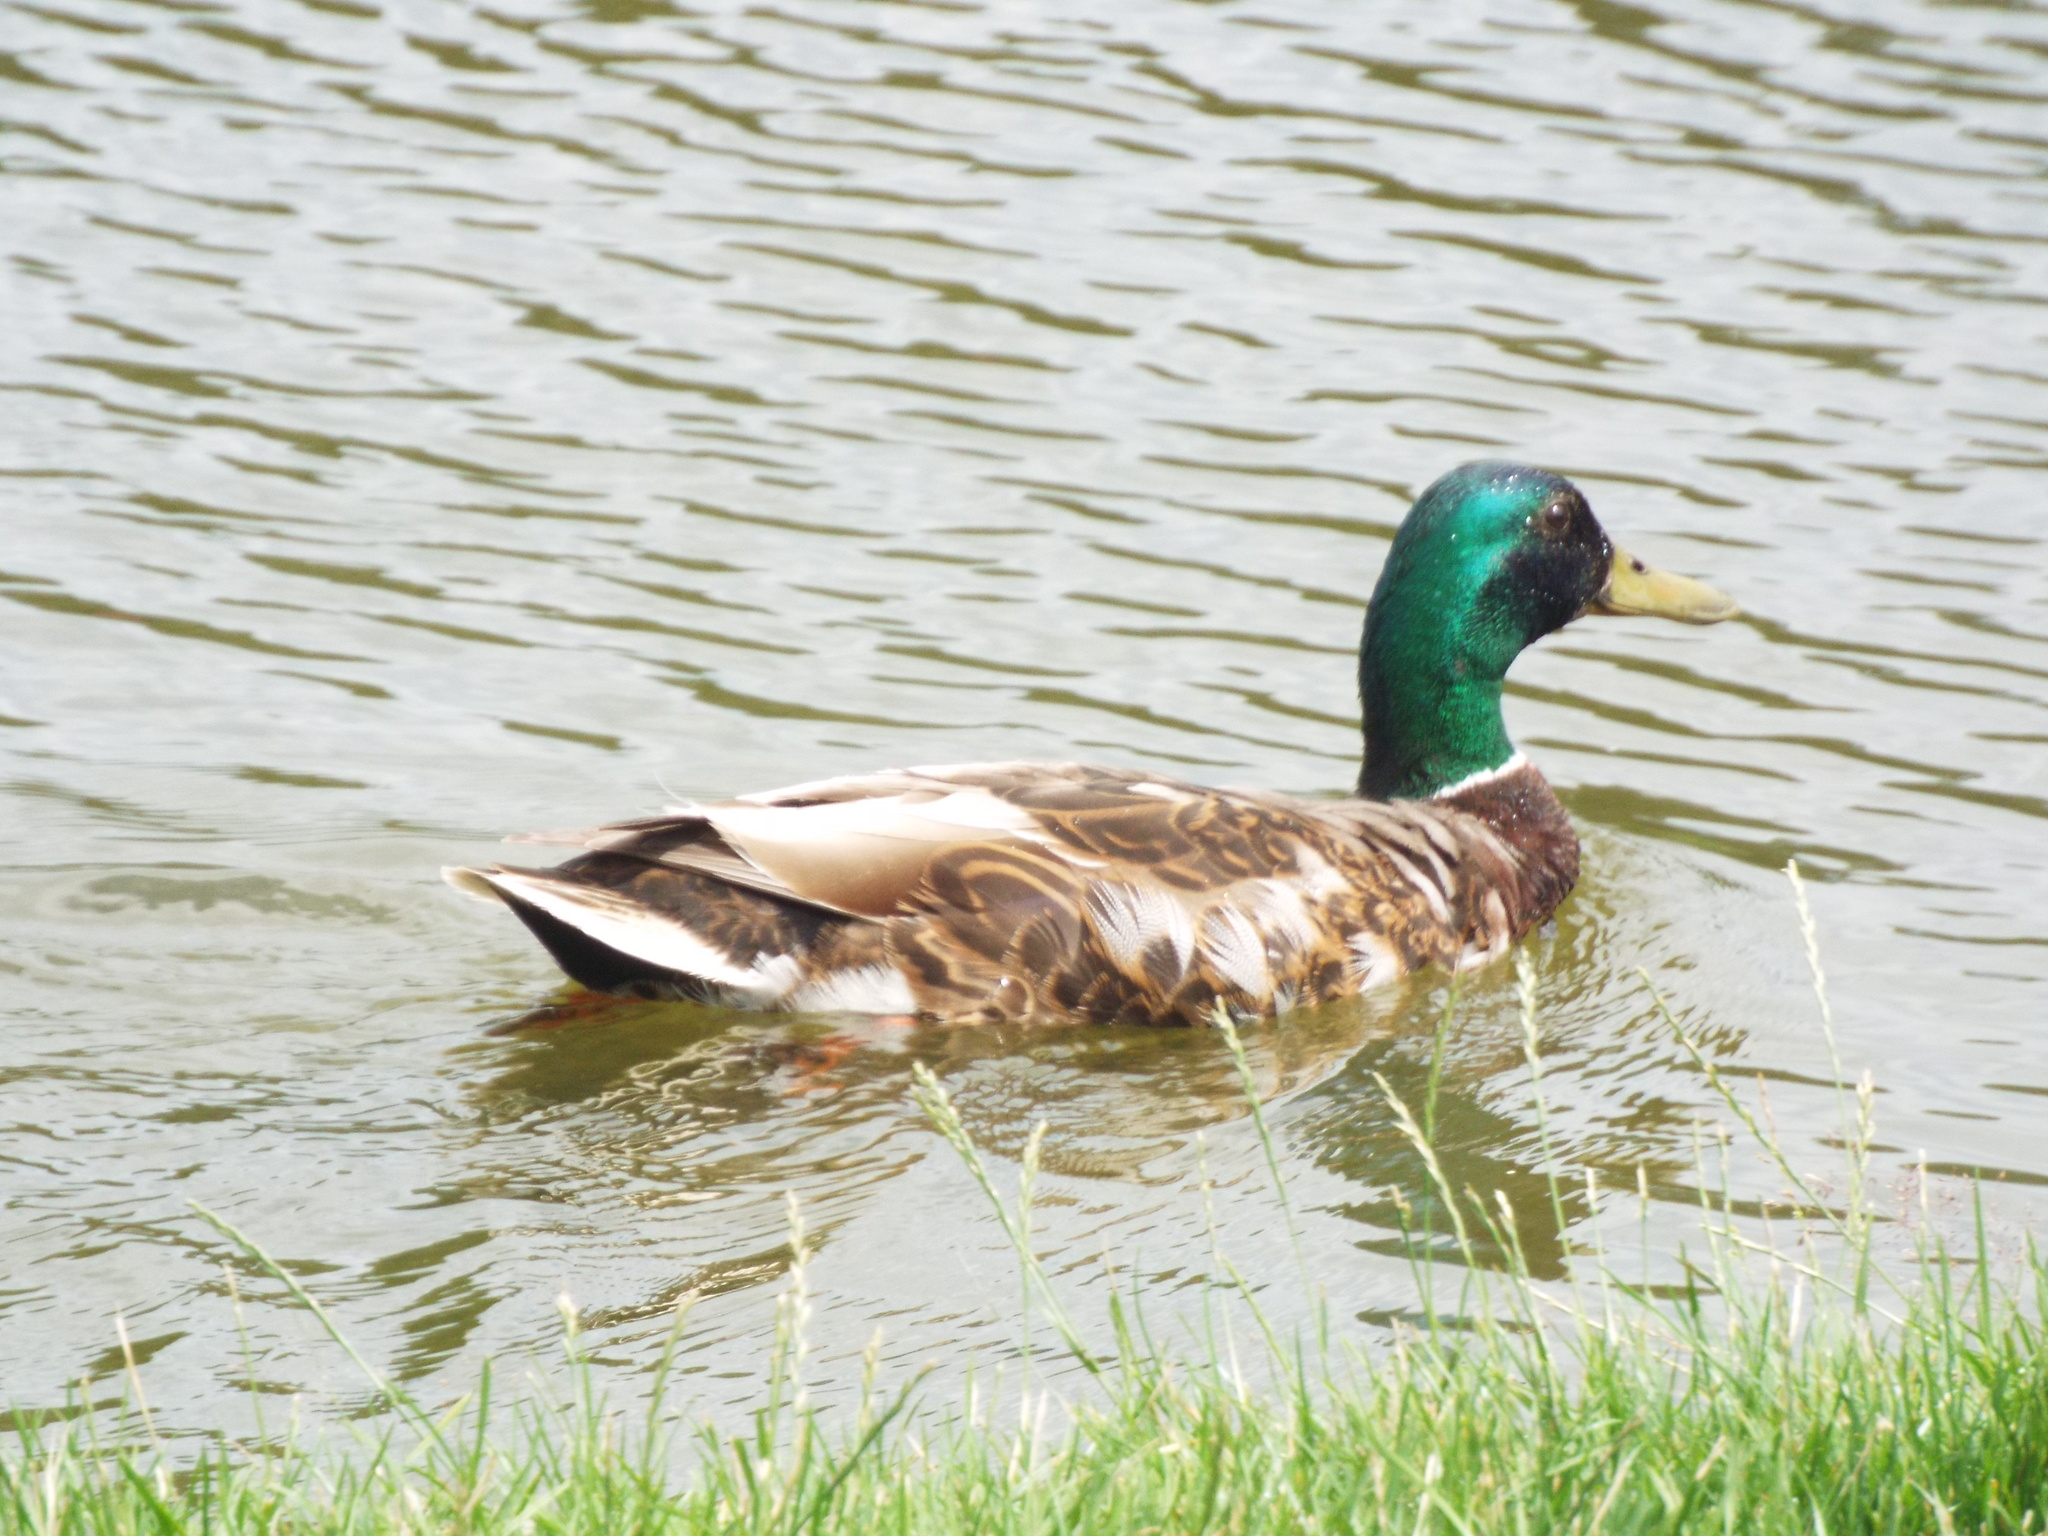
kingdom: Animalia
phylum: Chordata
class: Aves
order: Anseriformes
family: Anatidae
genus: Anas
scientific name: Anas platyrhynchos
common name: Mallard
